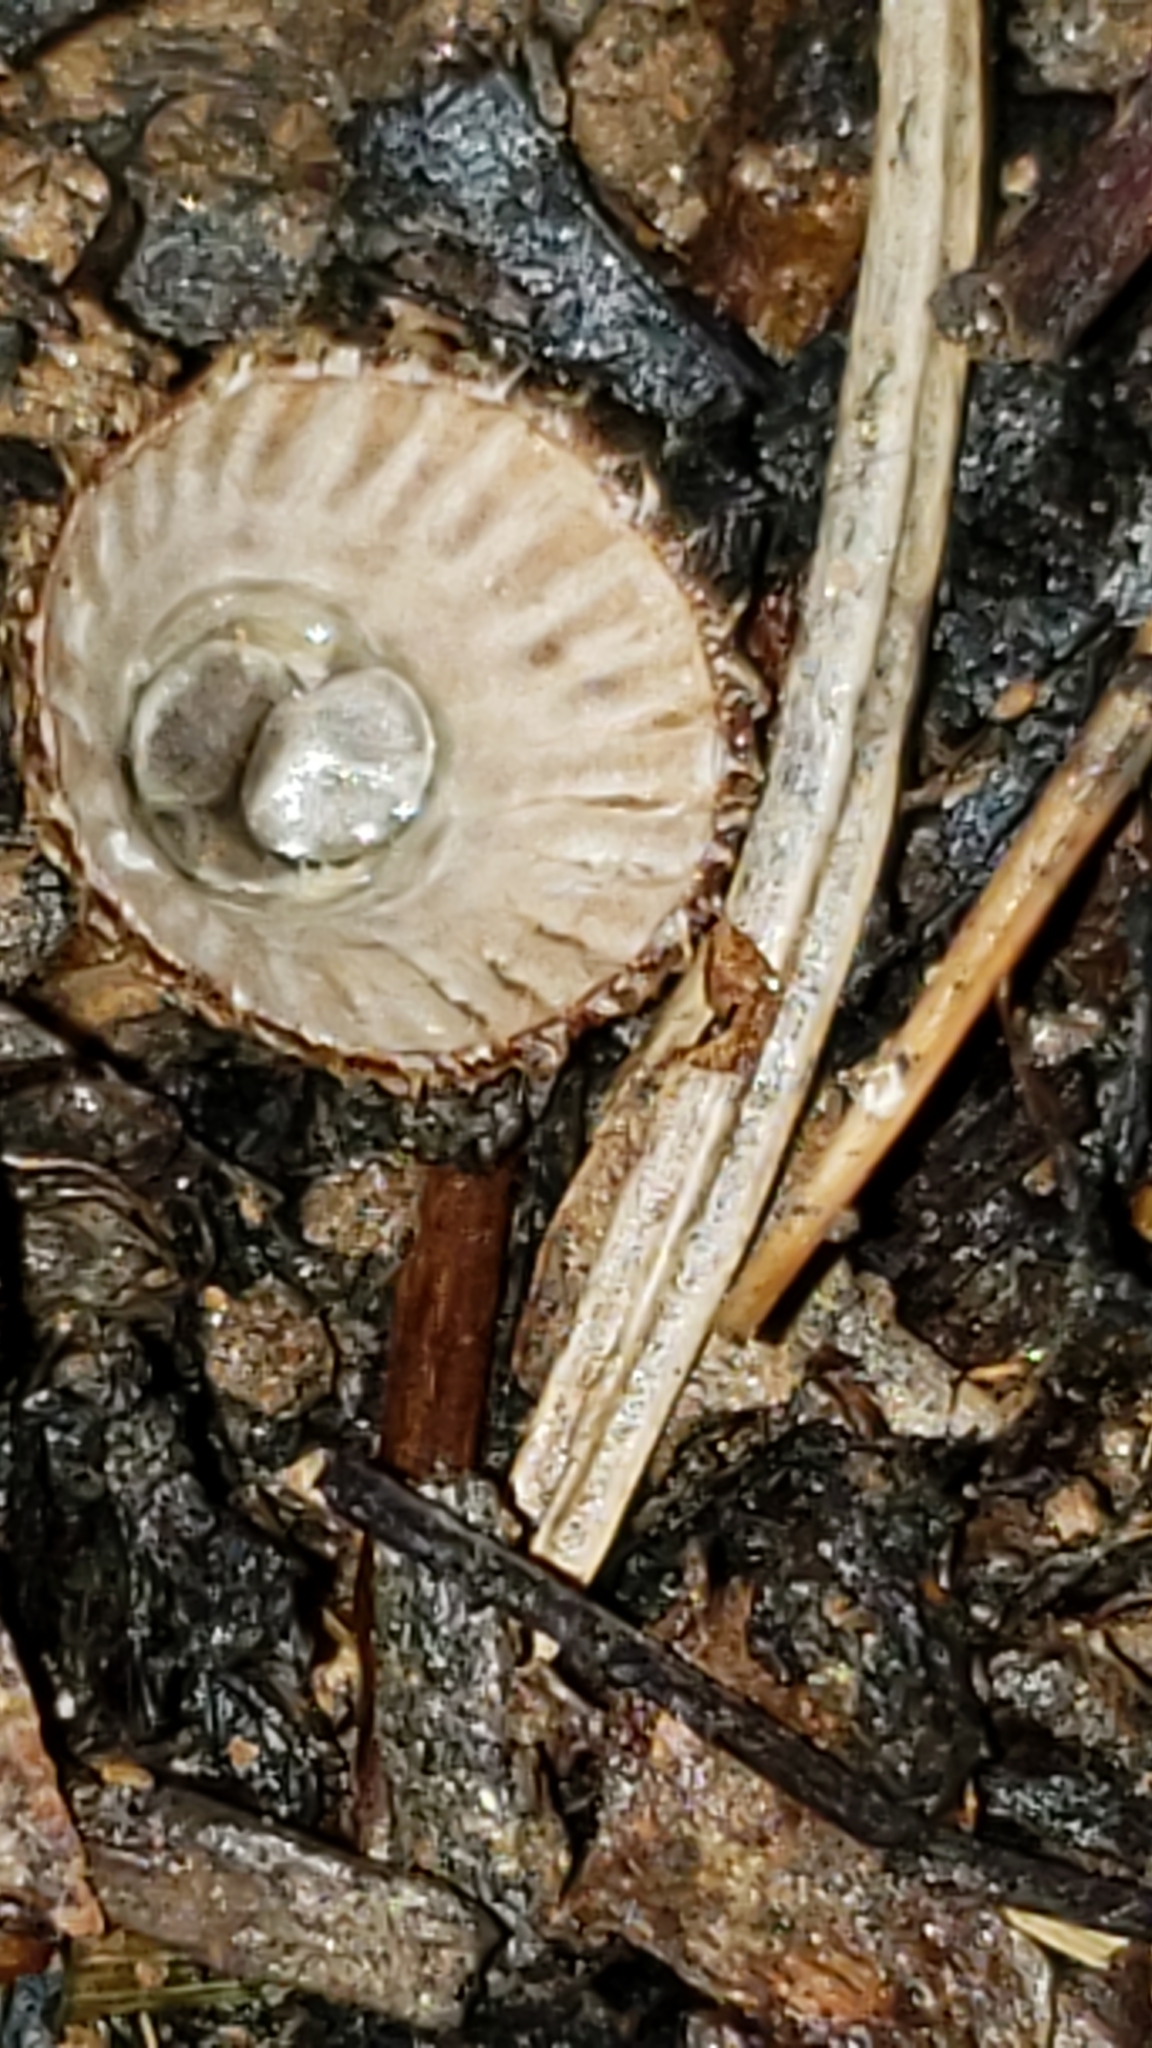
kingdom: Fungi
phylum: Basidiomycota
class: Agaricomycetes
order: Agaricales
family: Agaricaceae
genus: Cyathus
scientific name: Cyathus striatus
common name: Fluted bird's nest
